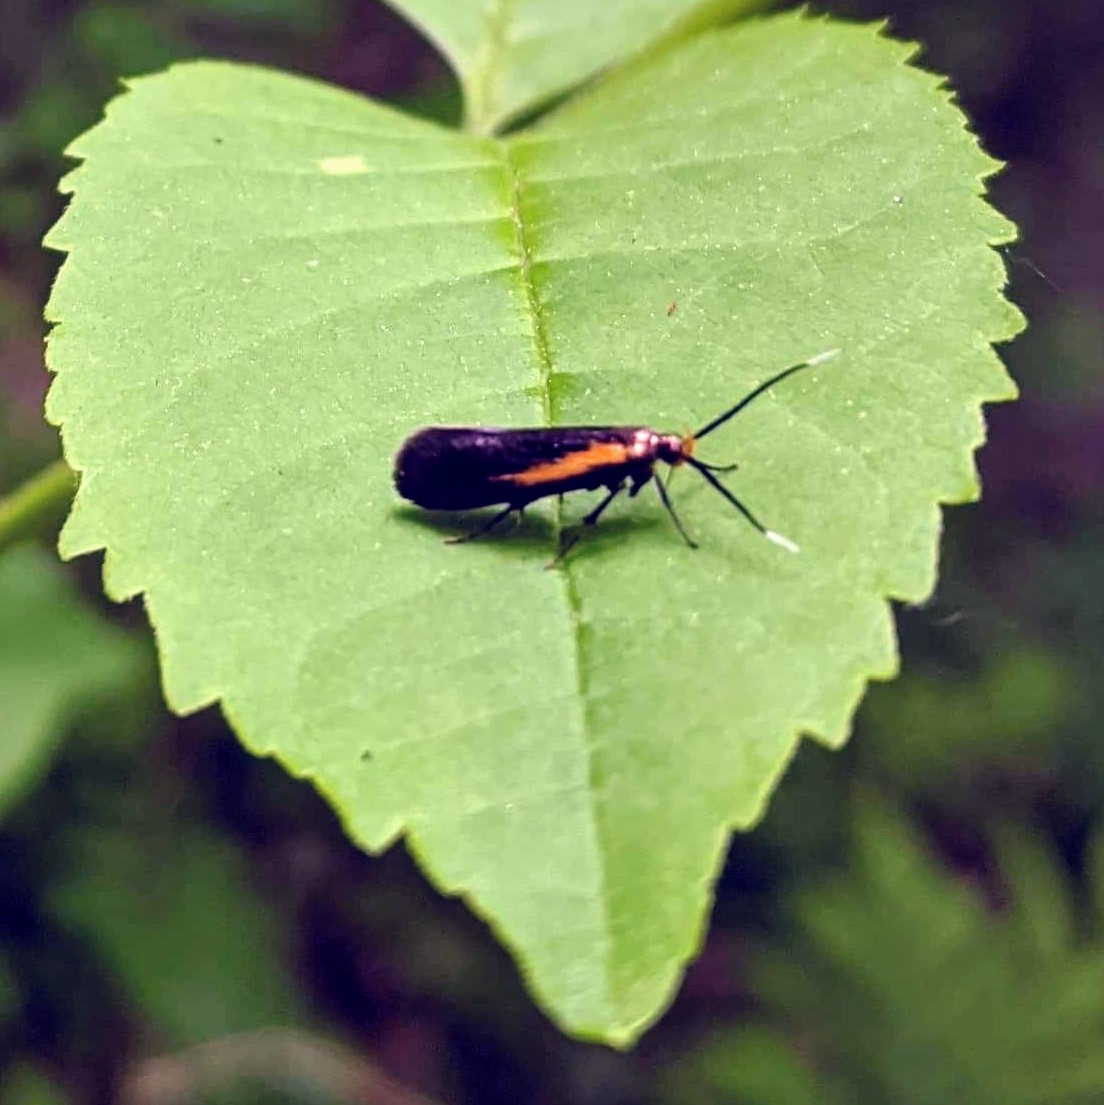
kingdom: Animalia
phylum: Arthropoda
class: Insecta
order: Lepidoptera
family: Oecophoridae
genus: Mathildana
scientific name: Mathildana newmanella
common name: Newman's mathildana moth
